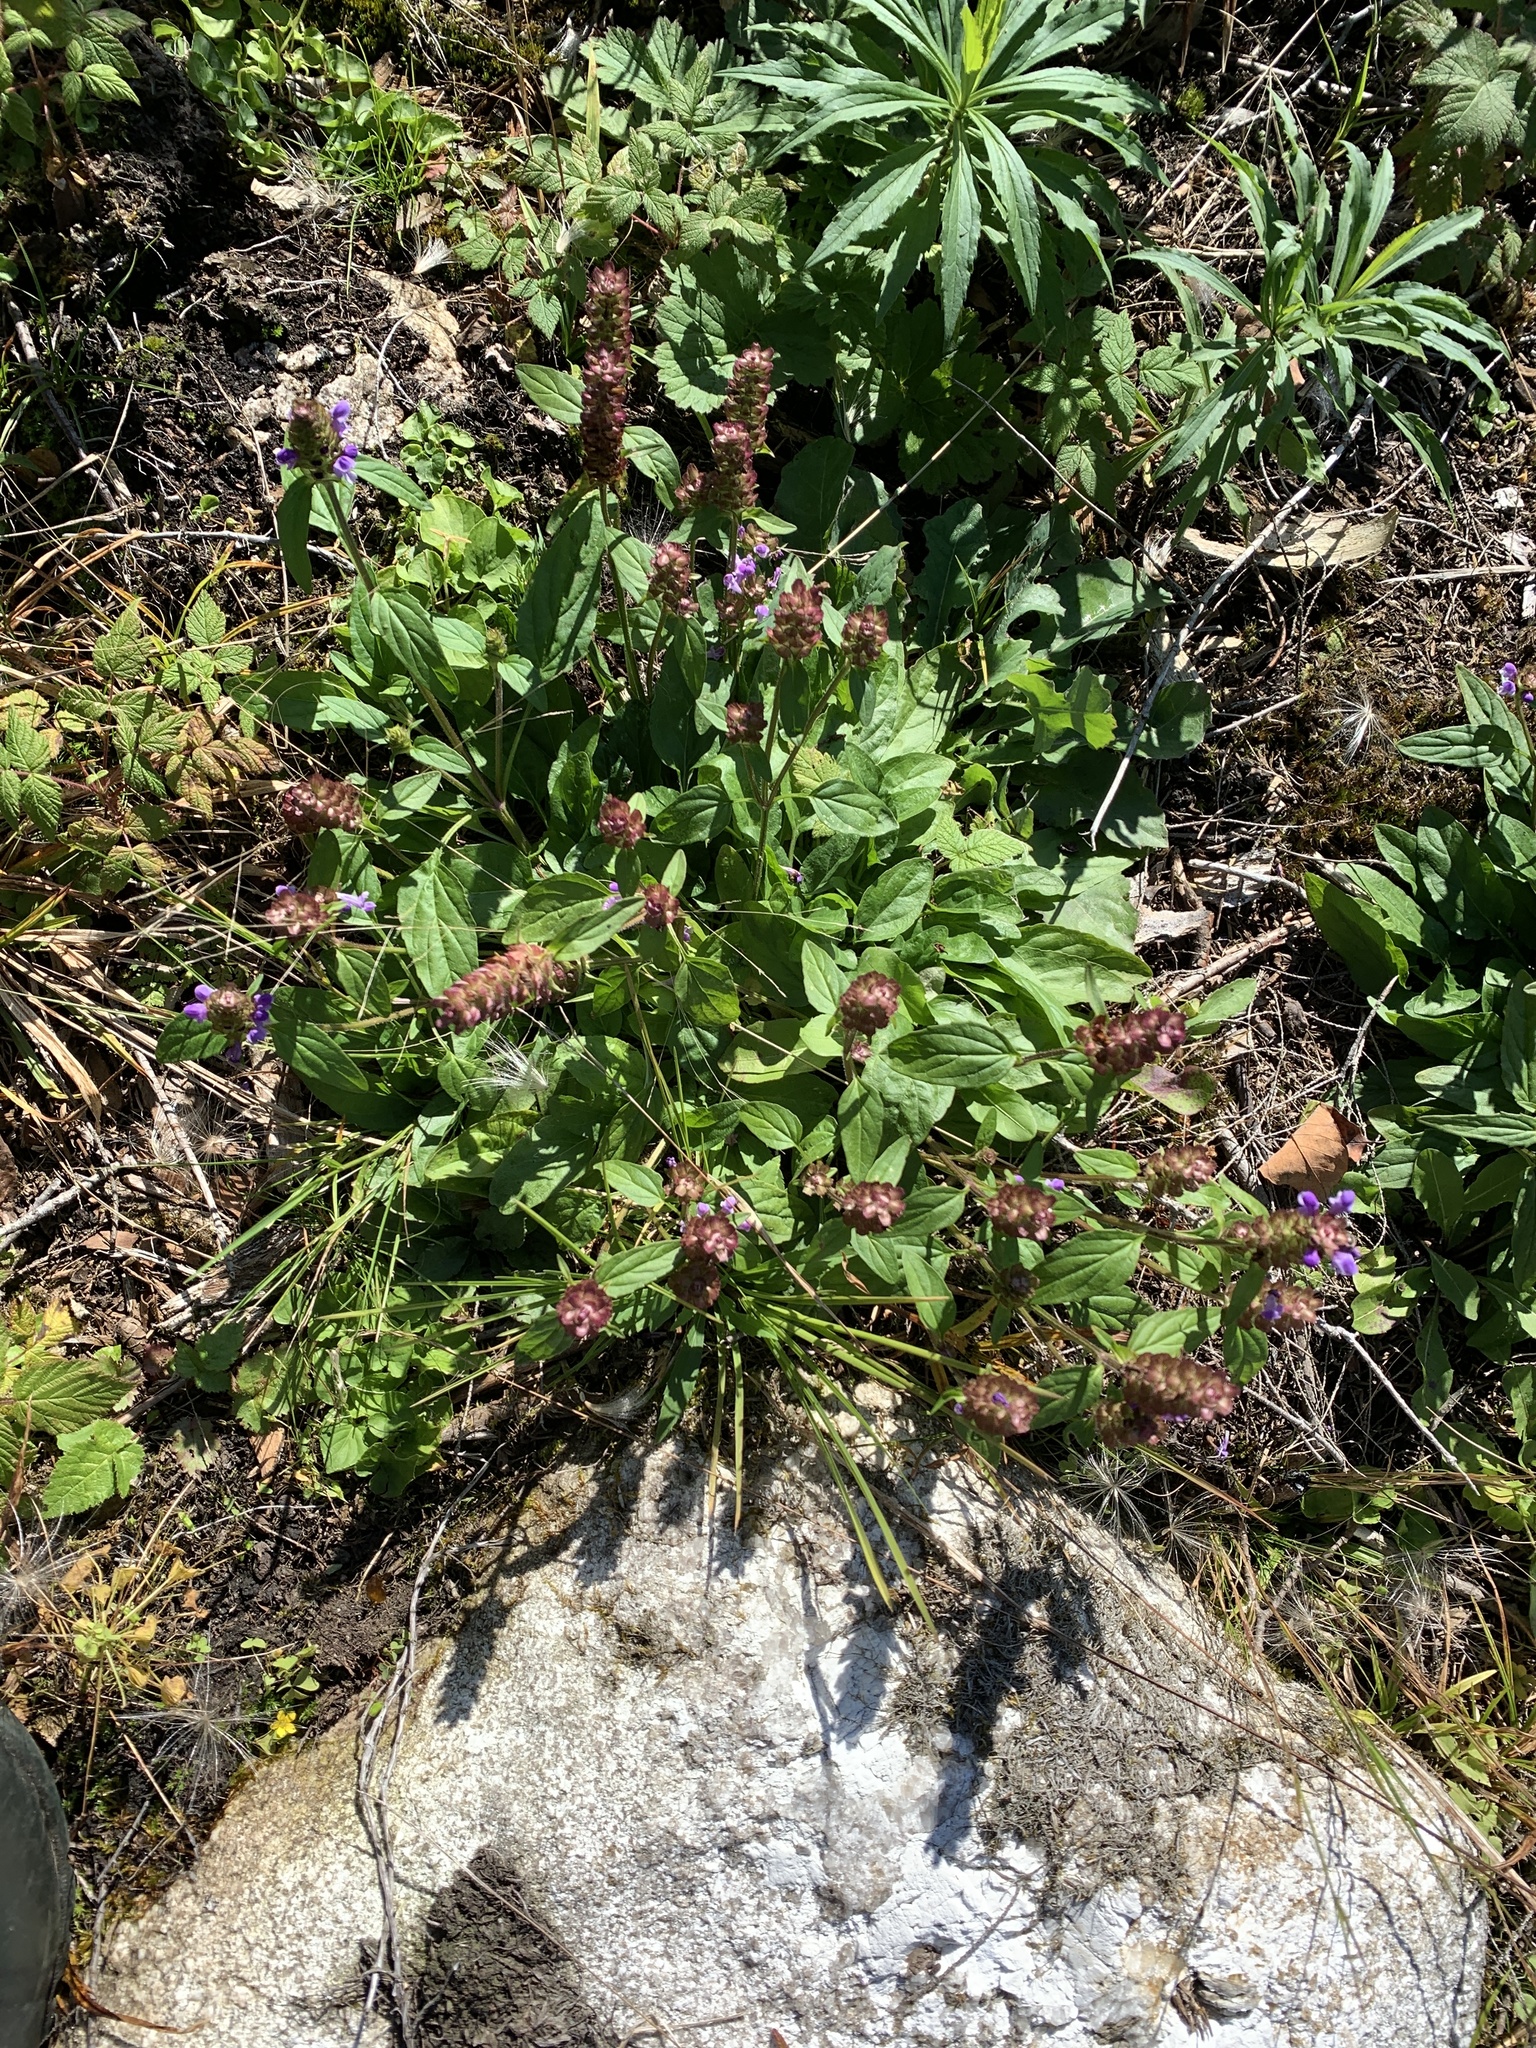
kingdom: Plantae
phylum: Tracheophyta
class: Magnoliopsida
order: Lamiales
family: Lamiaceae
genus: Prunella
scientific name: Prunella vulgaris
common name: Heal-all
